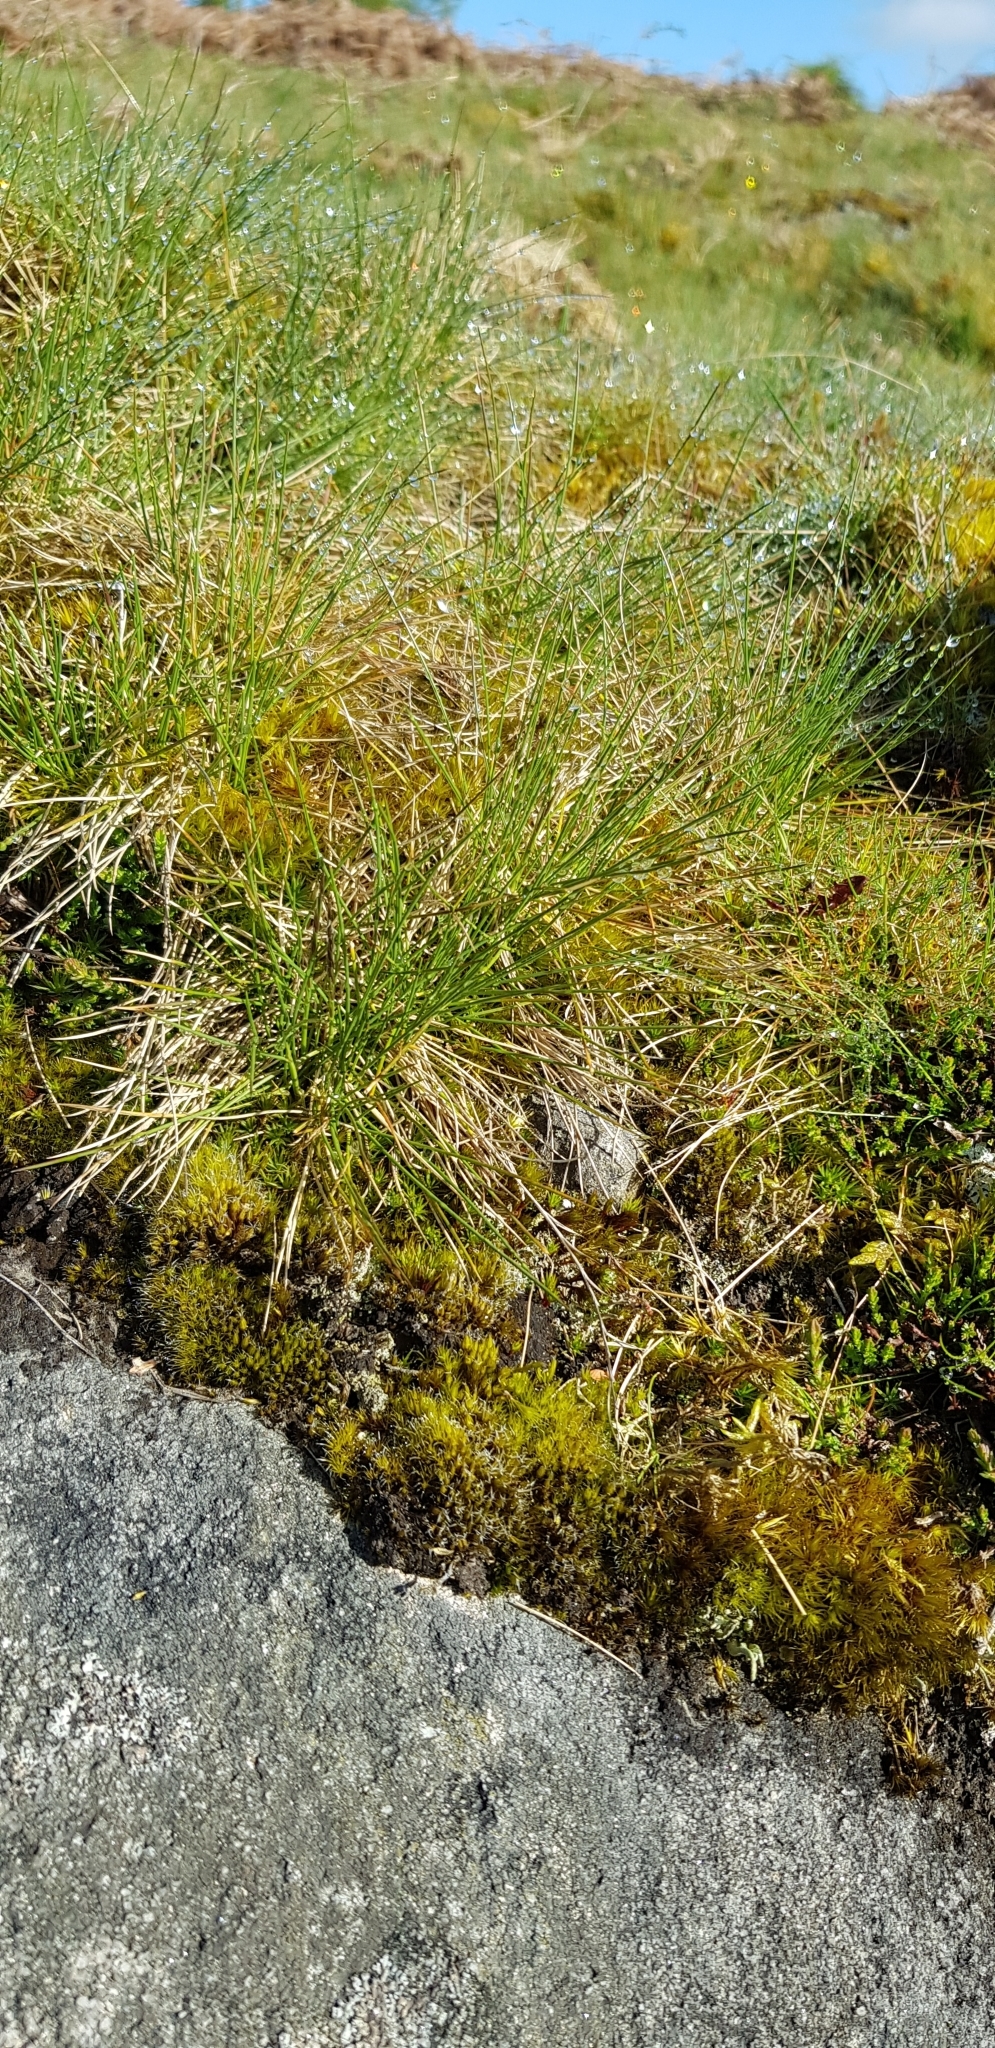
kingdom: Plantae
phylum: Bryophyta
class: Bryopsida
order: Dicranales
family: Leucobryaceae
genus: Campylopus
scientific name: Campylopus introflexus
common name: Heath star moss
